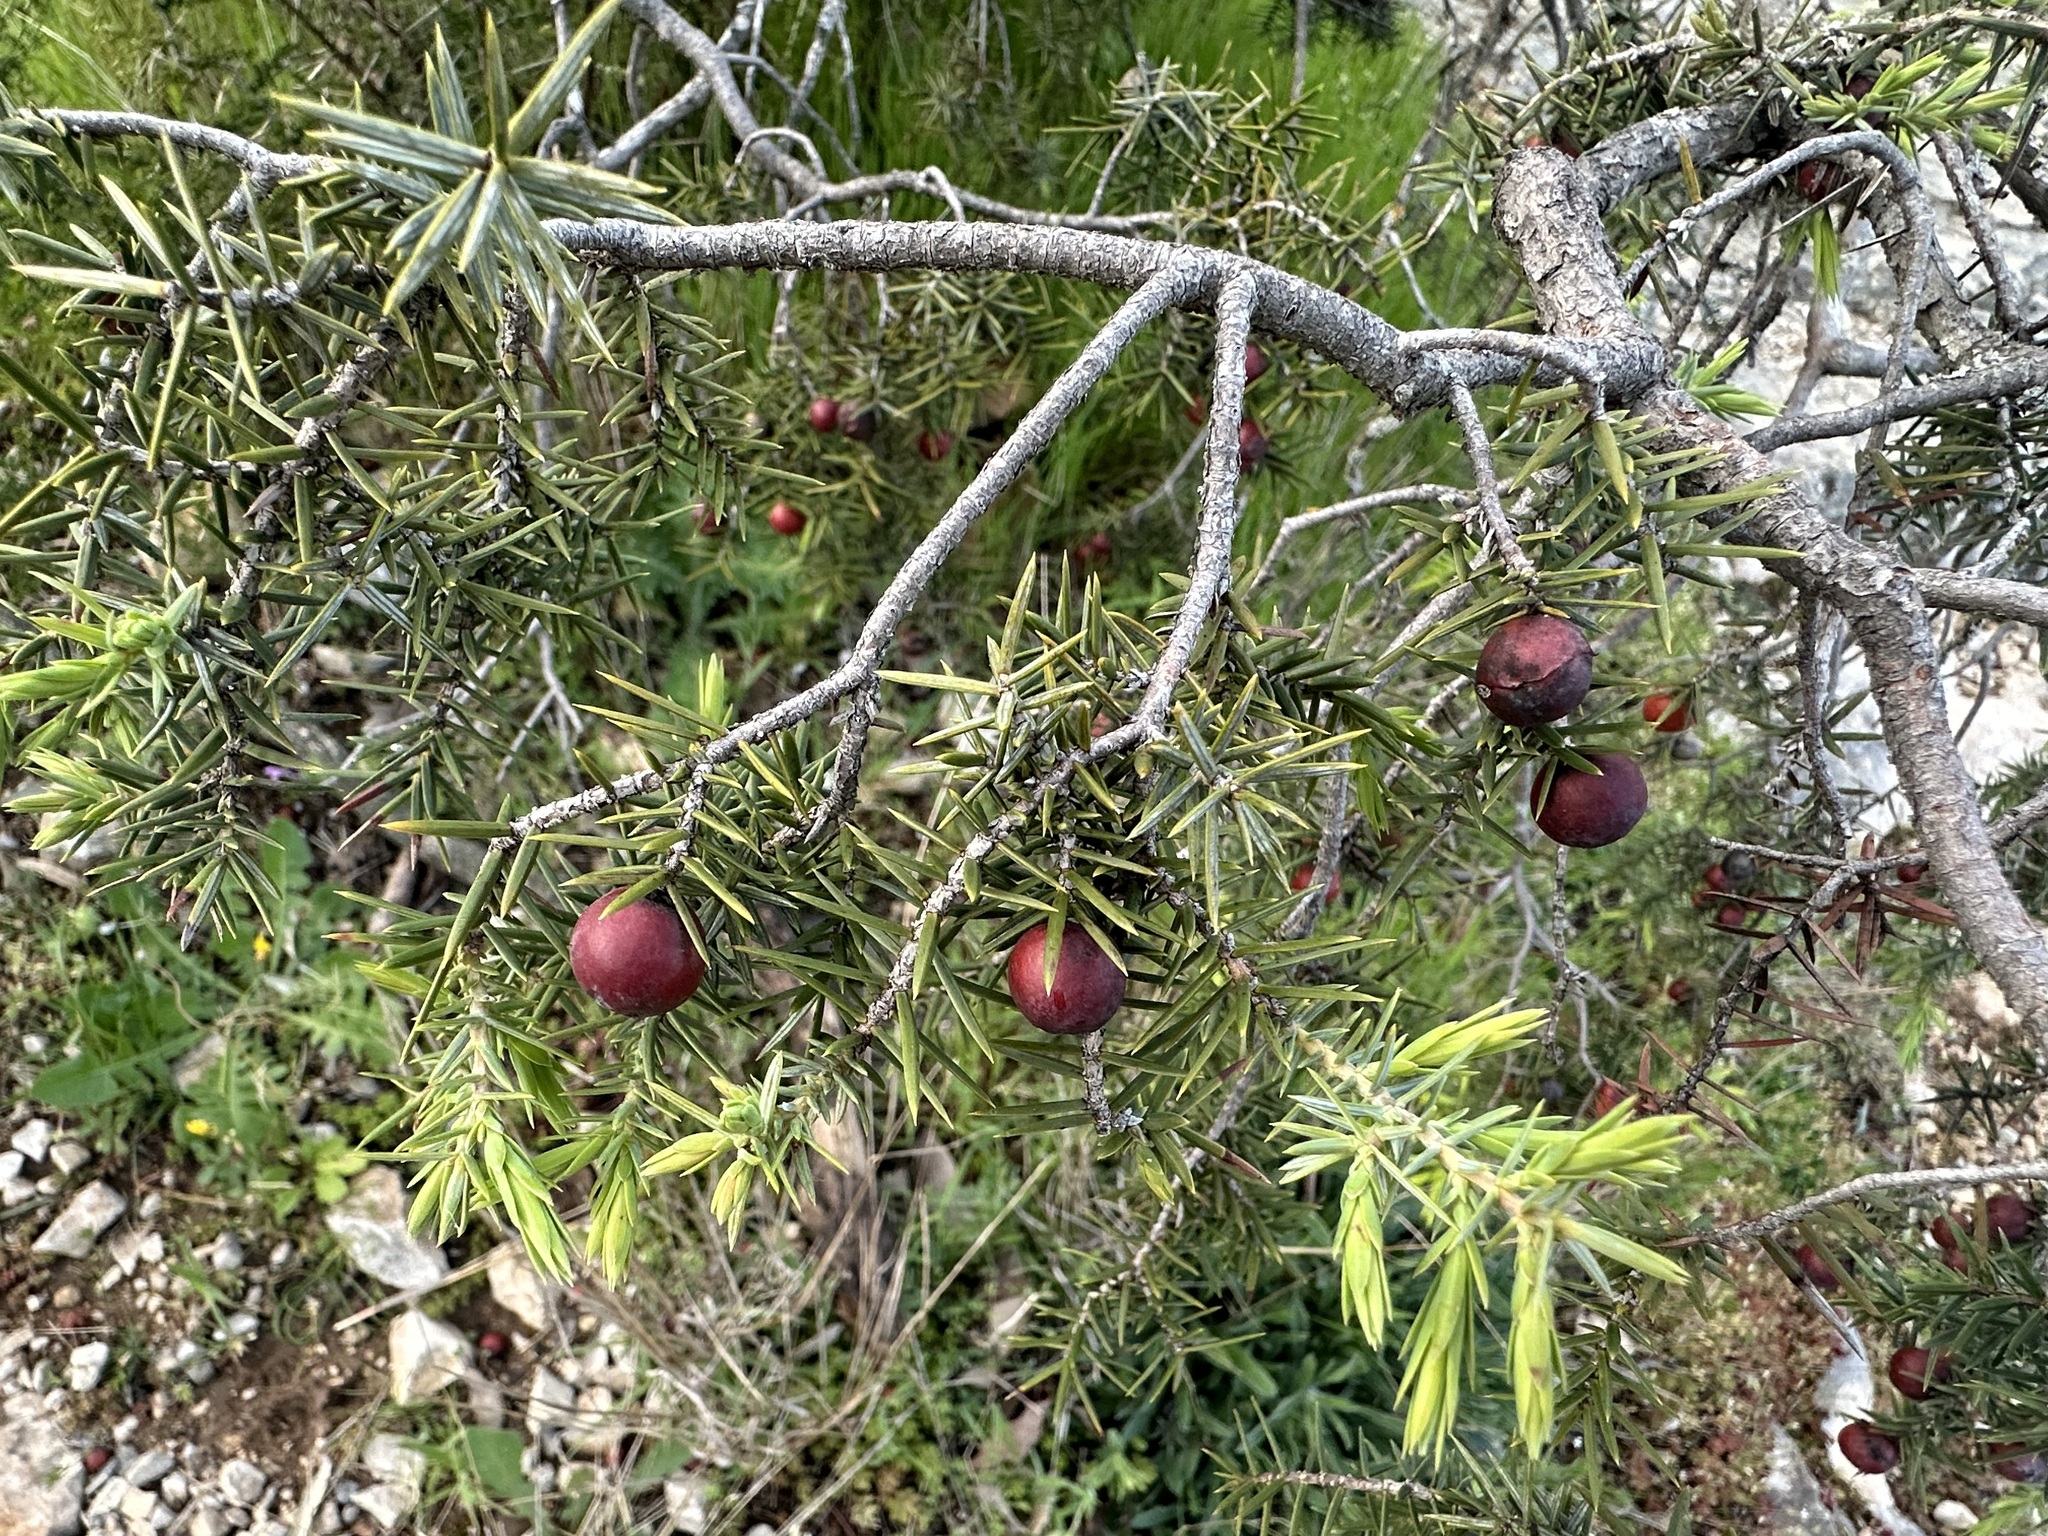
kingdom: Plantae
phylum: Tracheophyta
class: Pinopsida
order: Pinales
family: Cupressaceae
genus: Juniperus
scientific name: Juniperus oxycedrus
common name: Prickly juniper
